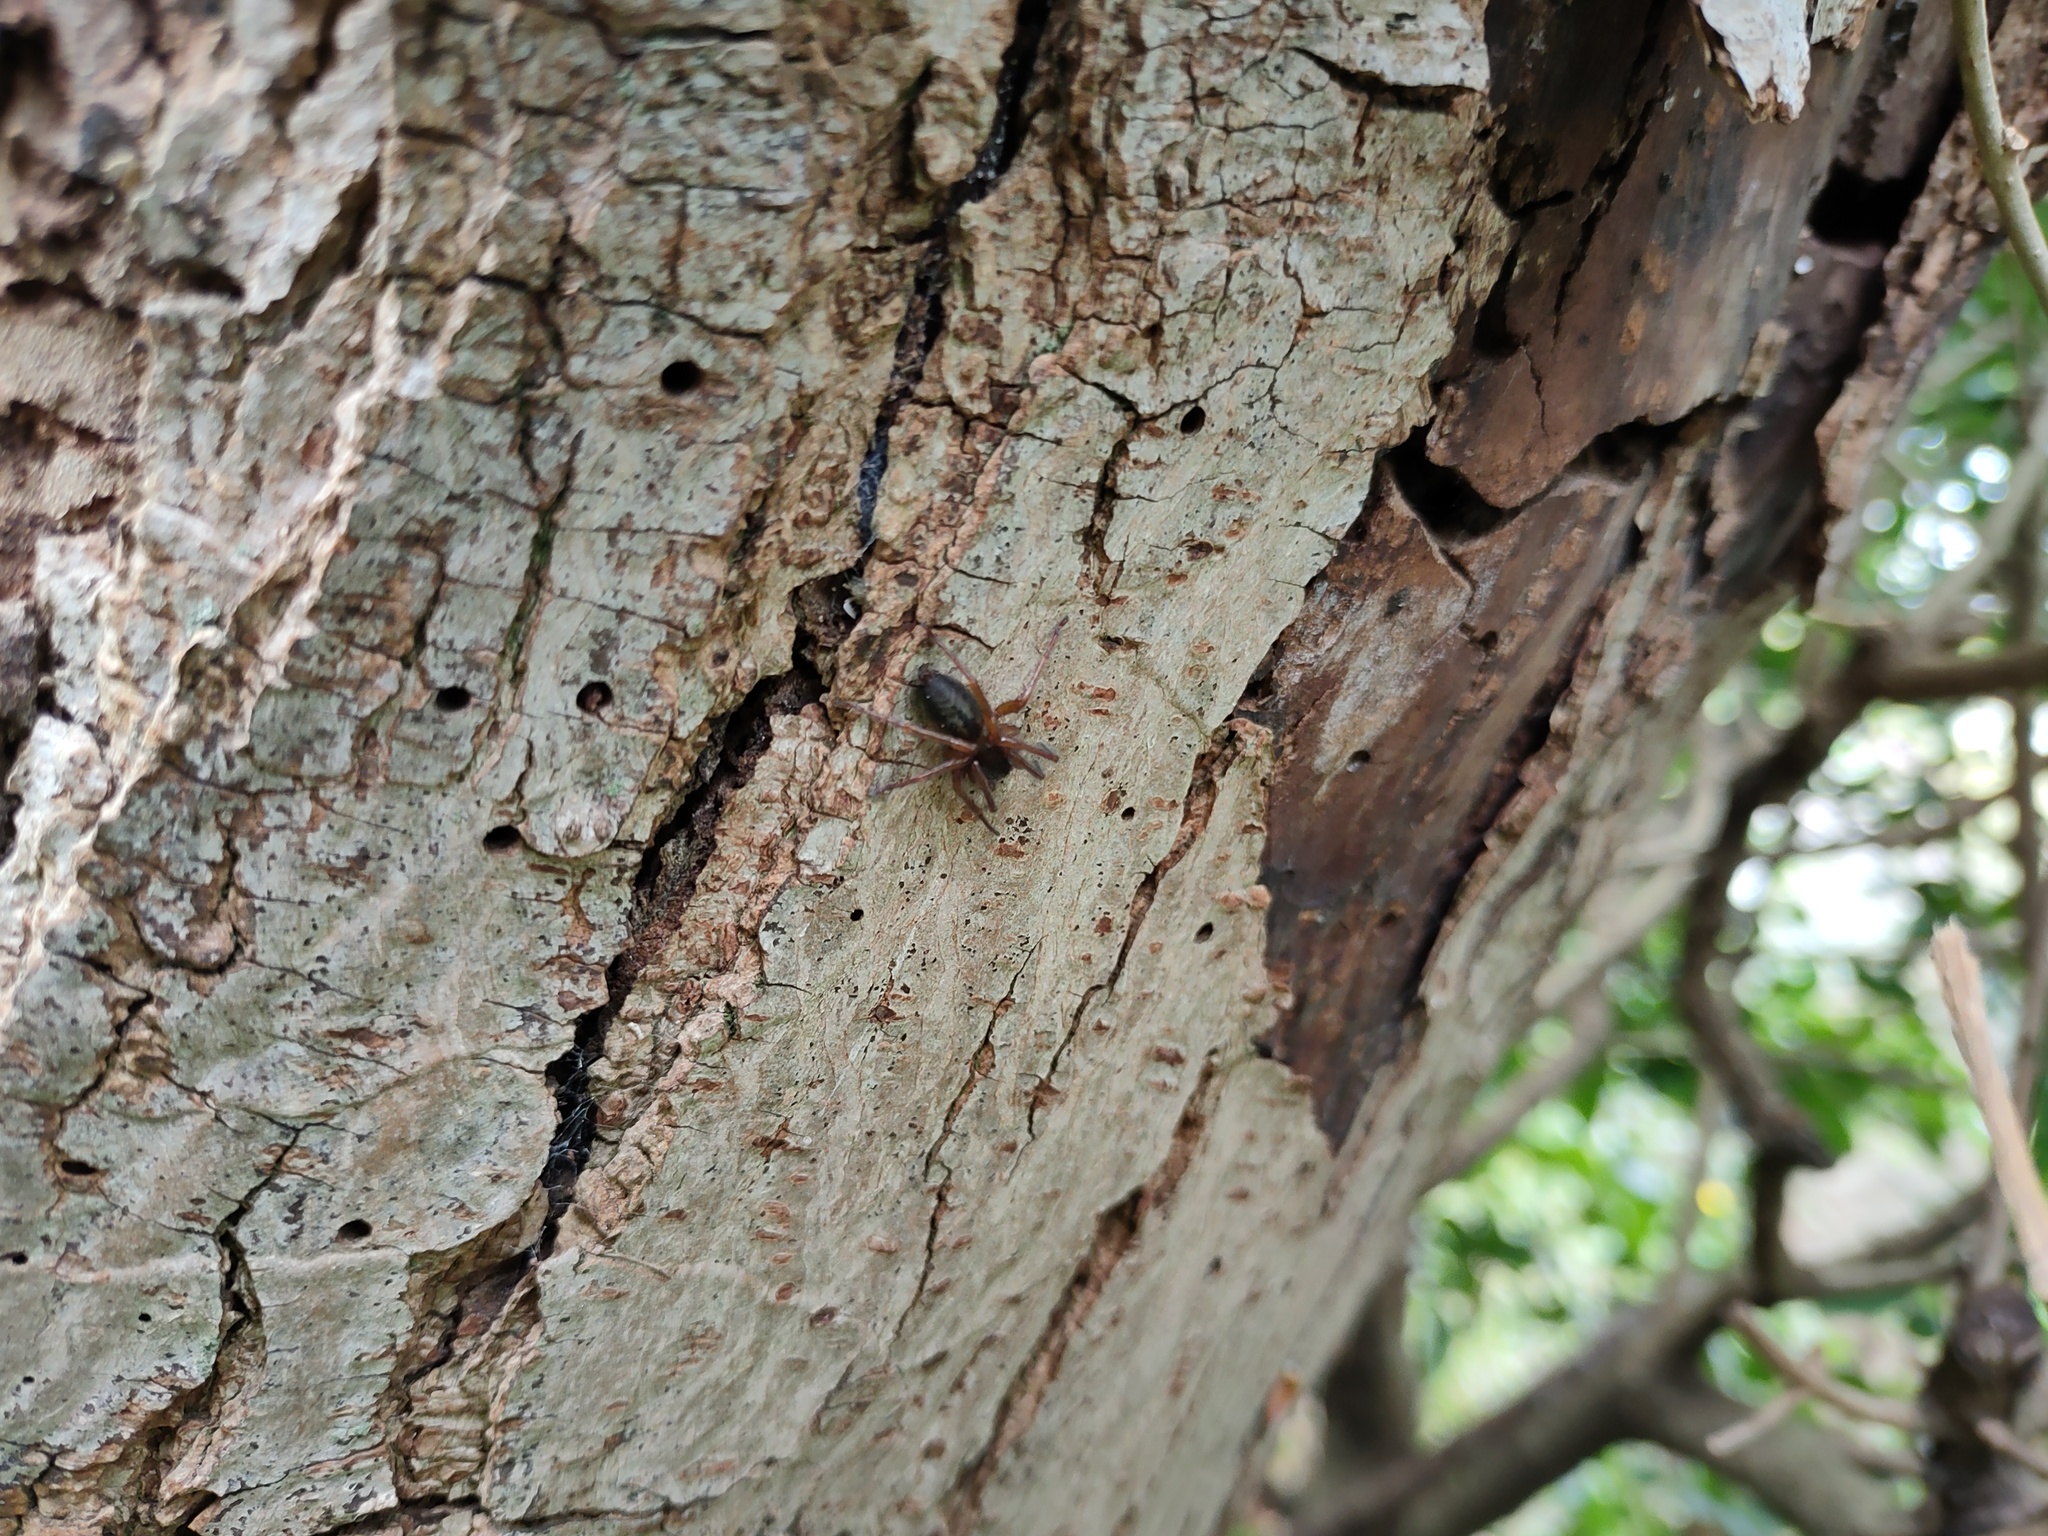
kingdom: Animalia
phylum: Arthropoda
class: Arachnida
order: Araneae
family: Clubionidae
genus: Clubiona
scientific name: Clubiona corticalis
